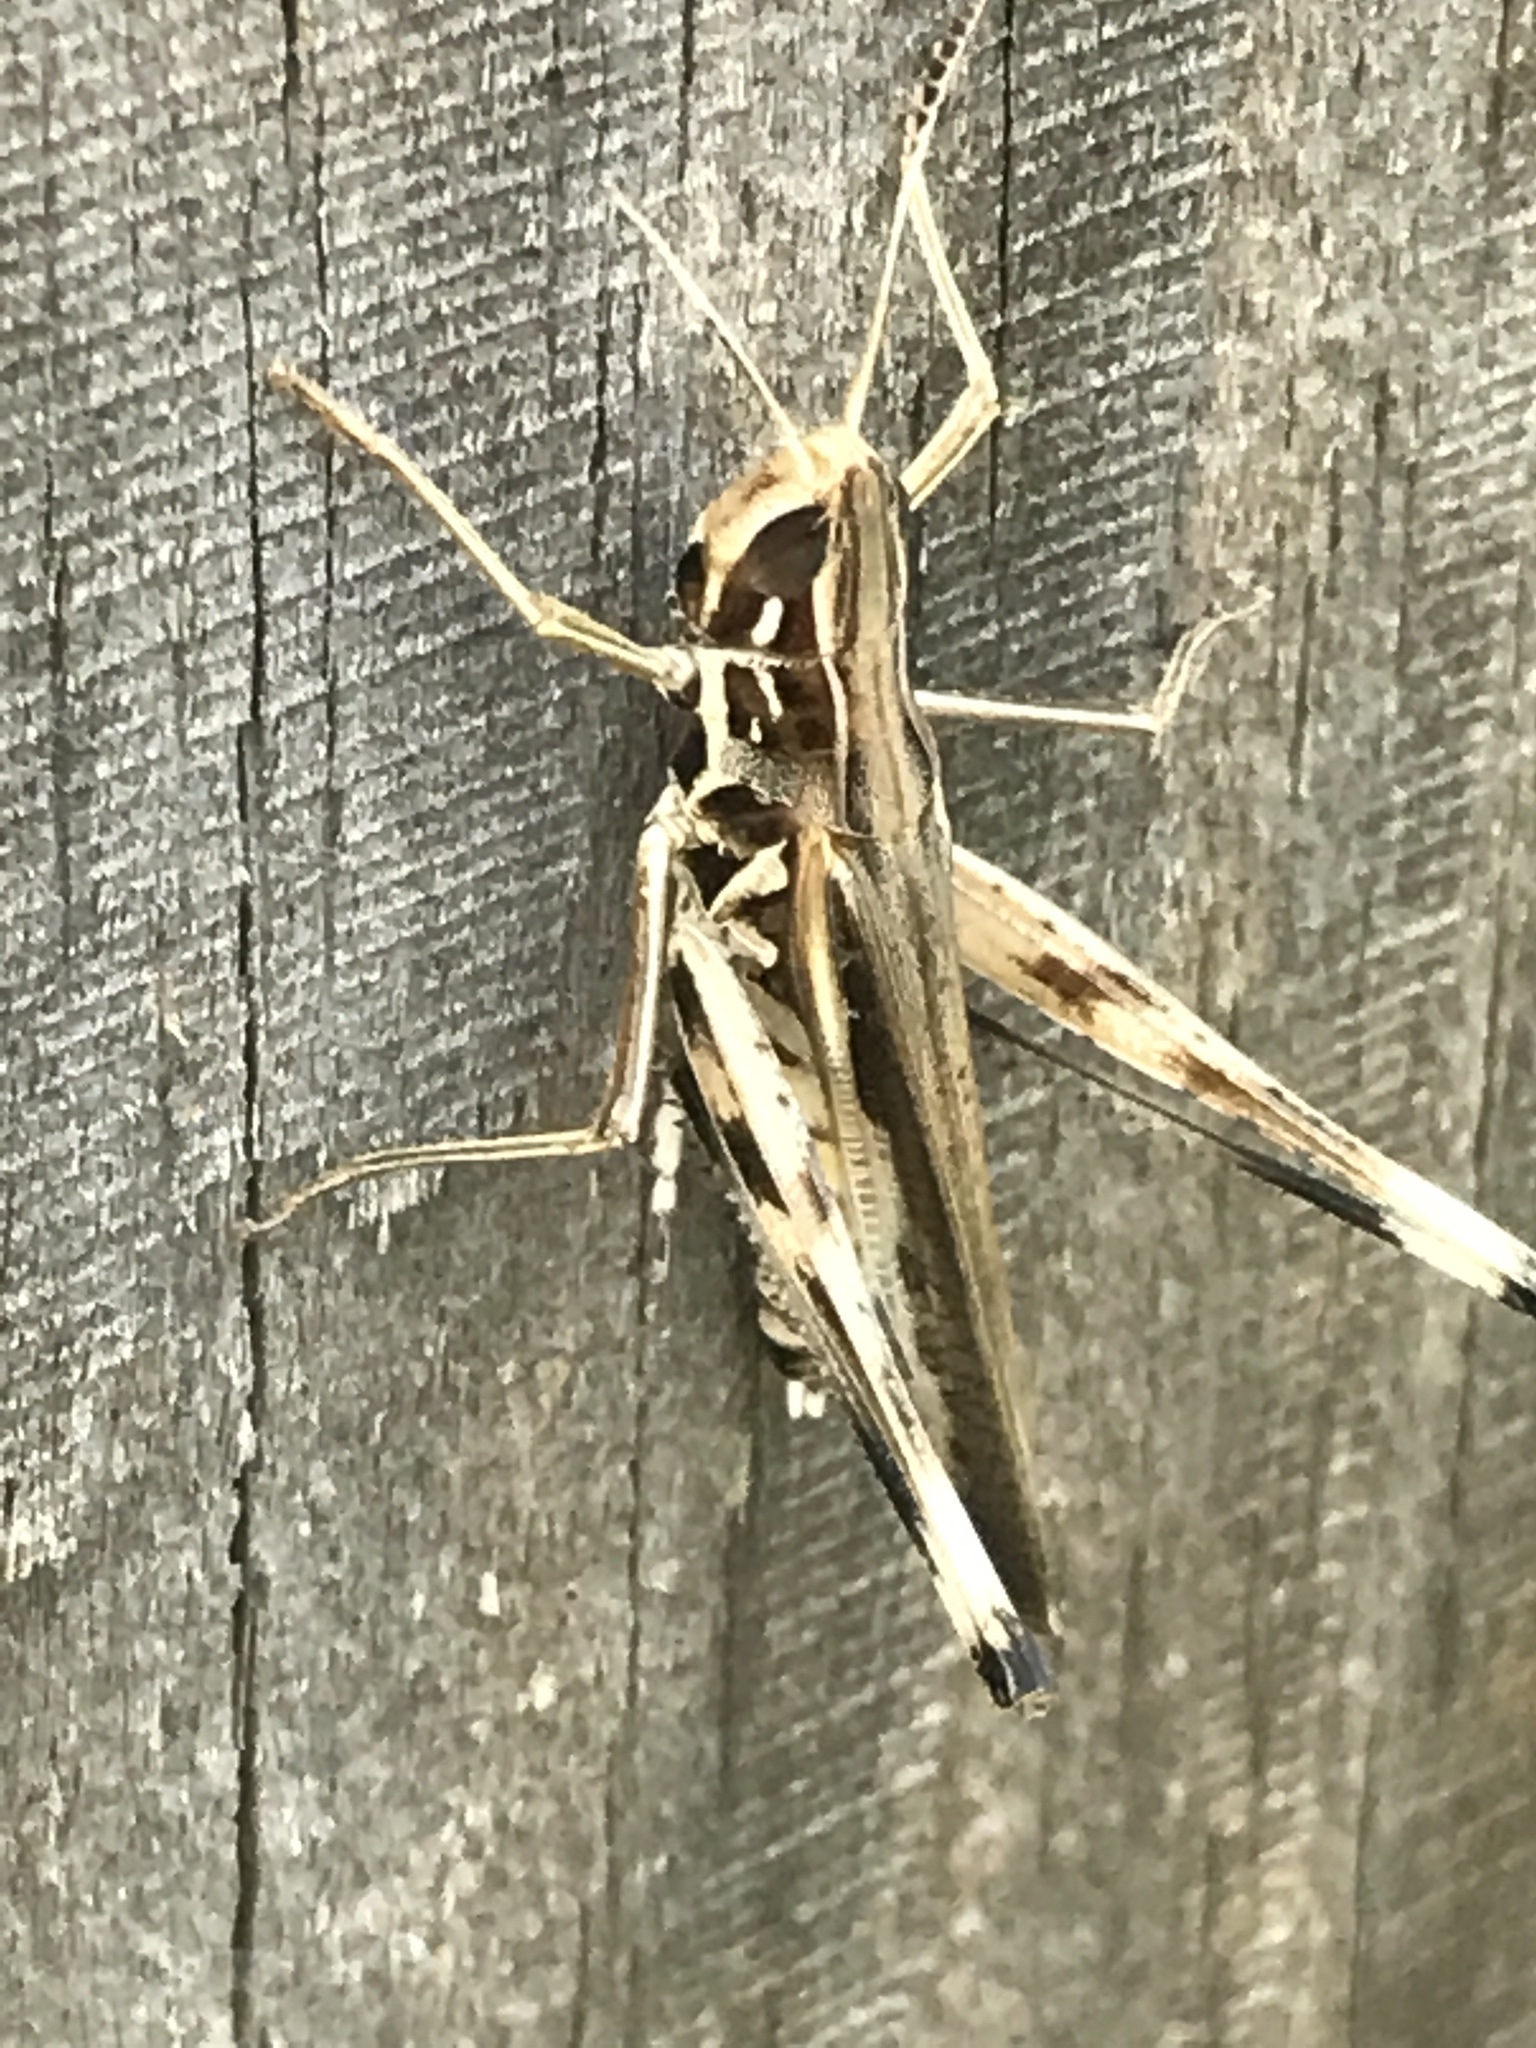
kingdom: Animalia
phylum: Arthropoda
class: Insecta
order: Orthoptera
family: Acrididae
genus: Syrbula
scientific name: Syrbula admirabilis
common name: Handsome grasshopper
